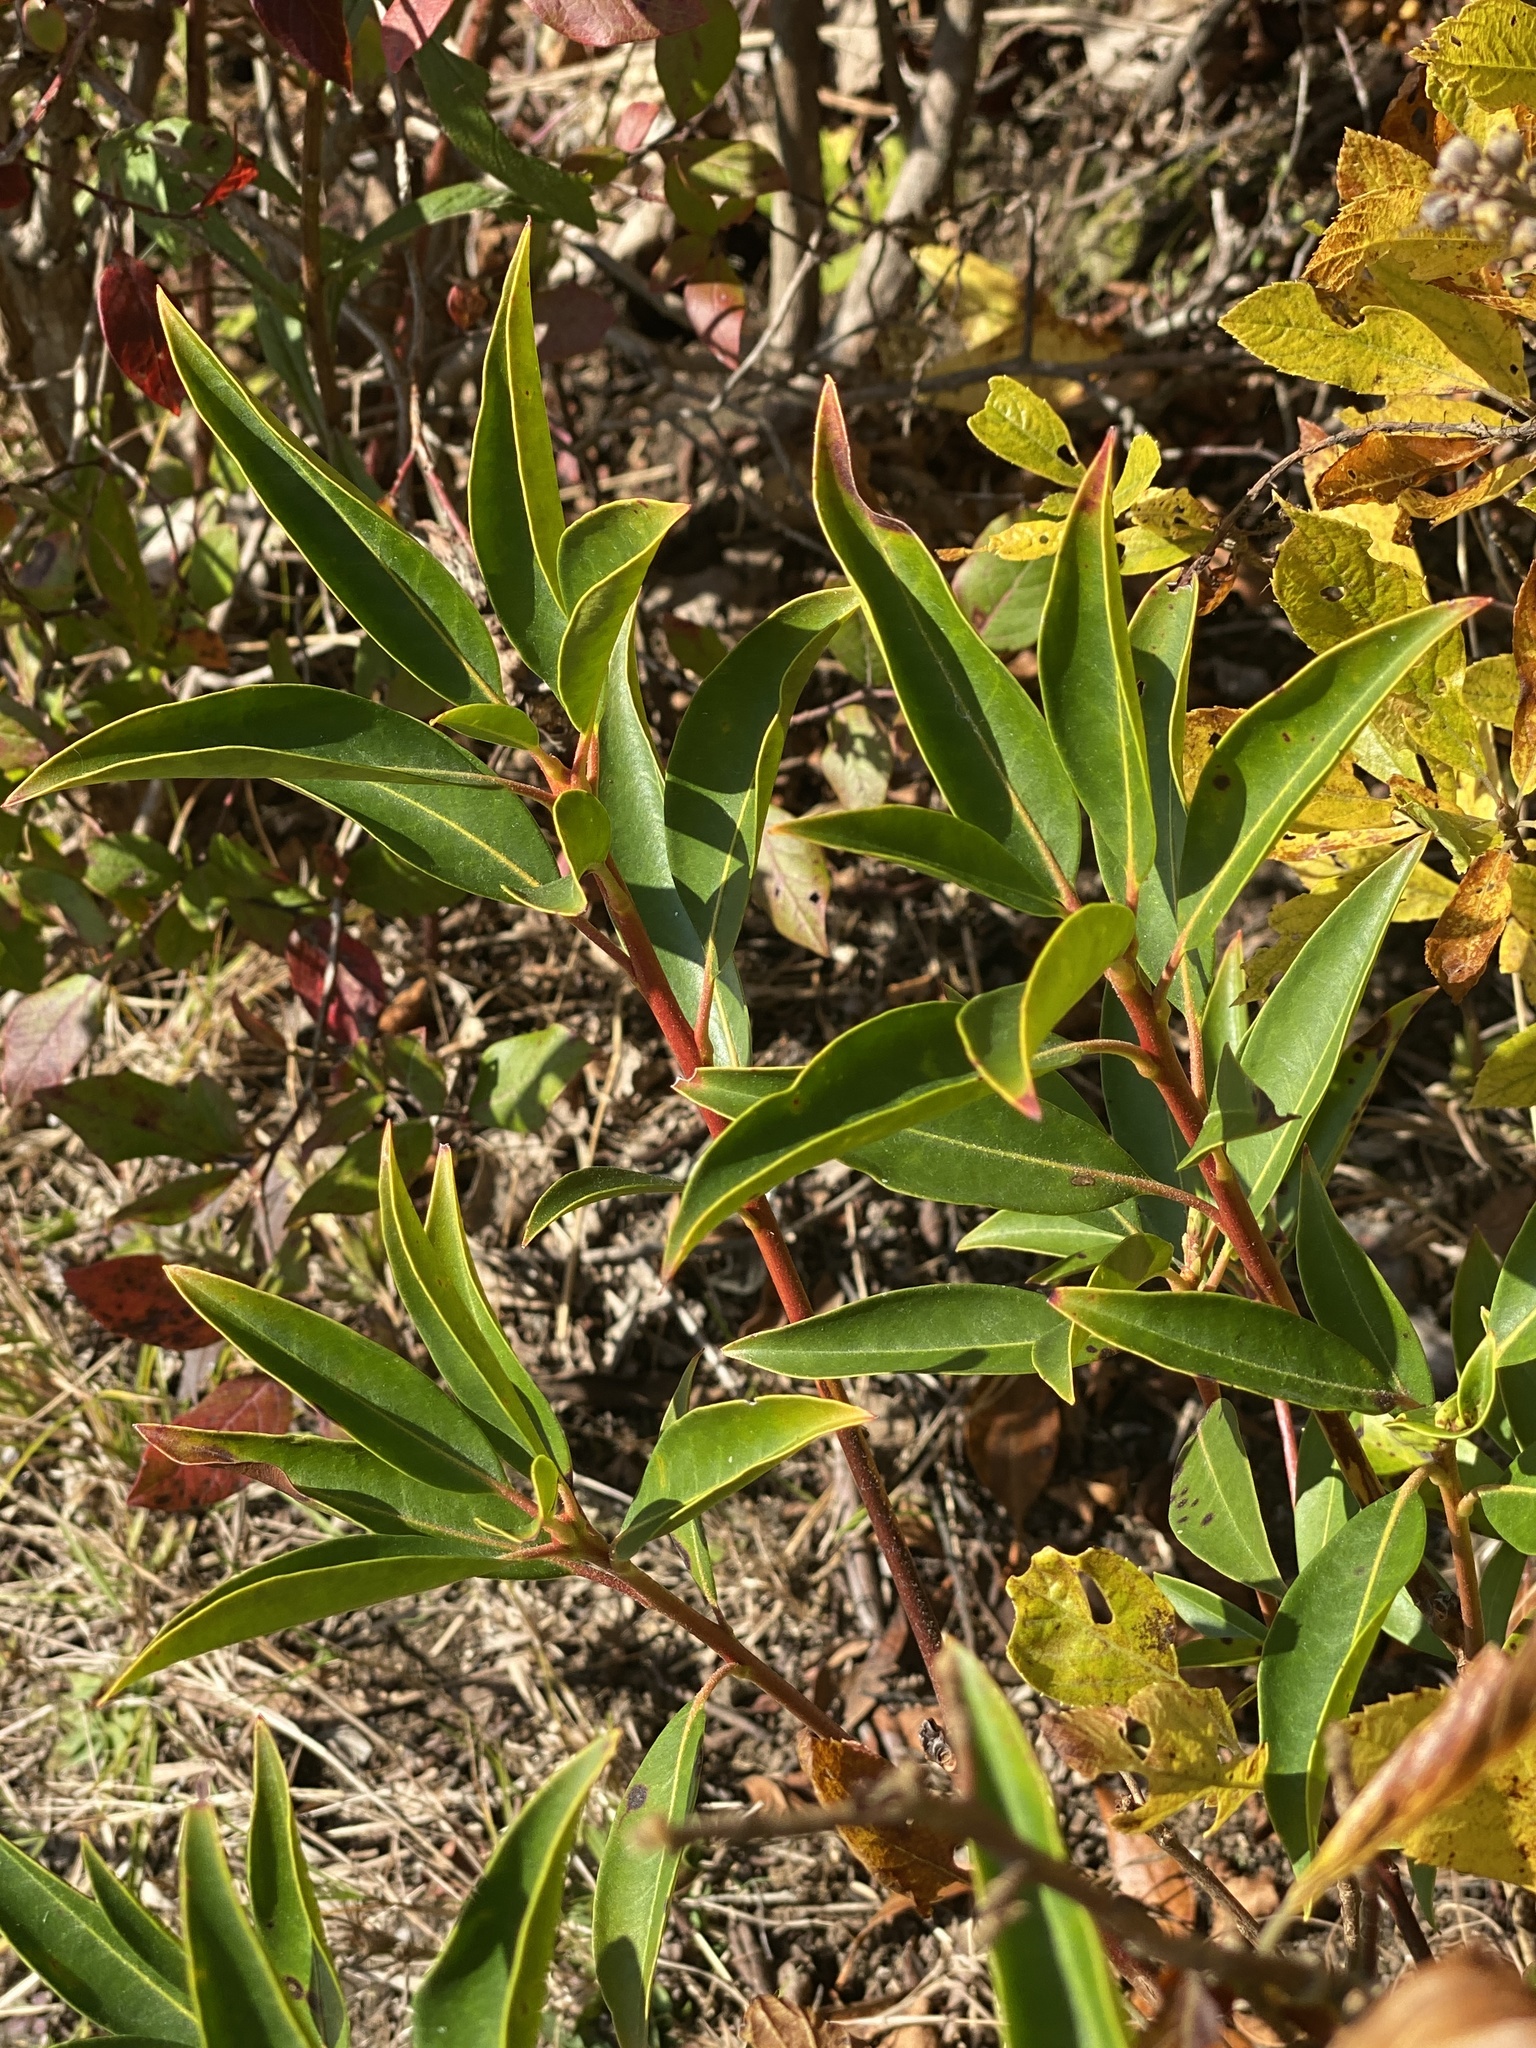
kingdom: Plantae
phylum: Tracheophyta
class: Magnoliopsida
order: Ericales
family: Ericaceae
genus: Kalmia
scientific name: Kalmia latifolia
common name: Mountain-laurel
